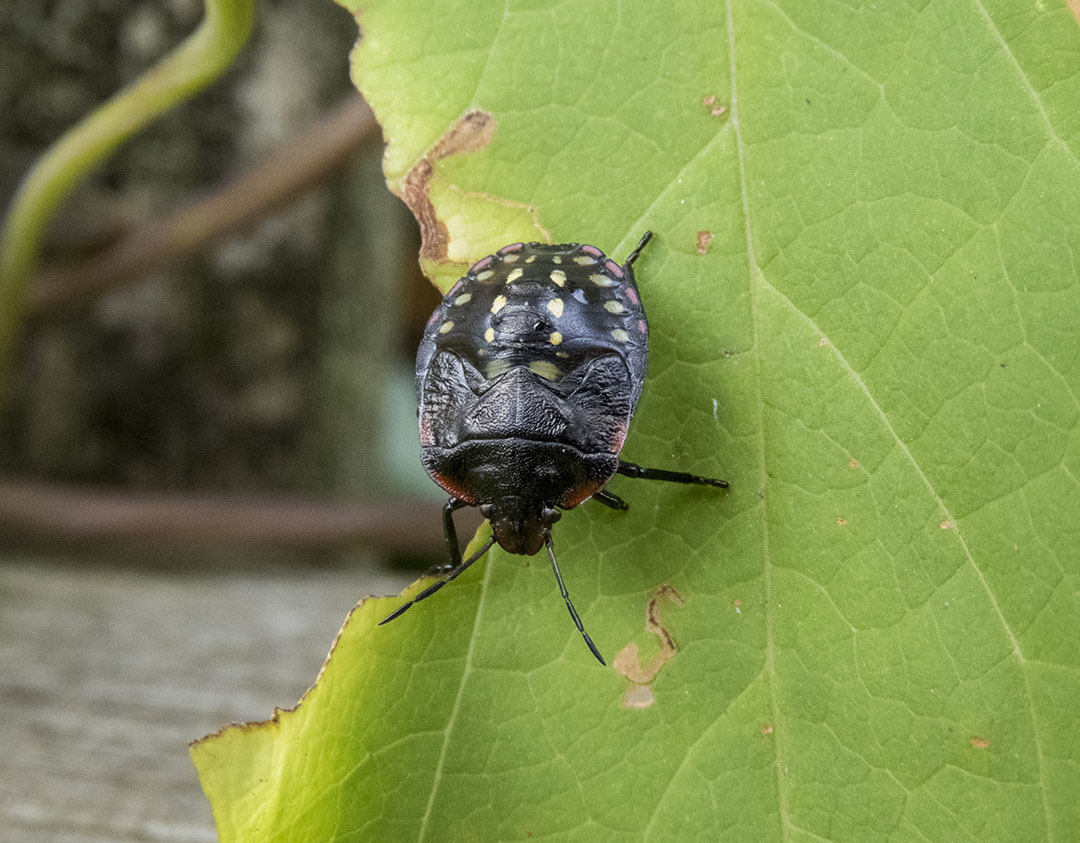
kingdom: Animalia
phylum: Arthropoda
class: Insecta
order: Hemiptera
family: Pentatomidae
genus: Nezara
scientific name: Nezara viridula
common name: Southern green stink bug
